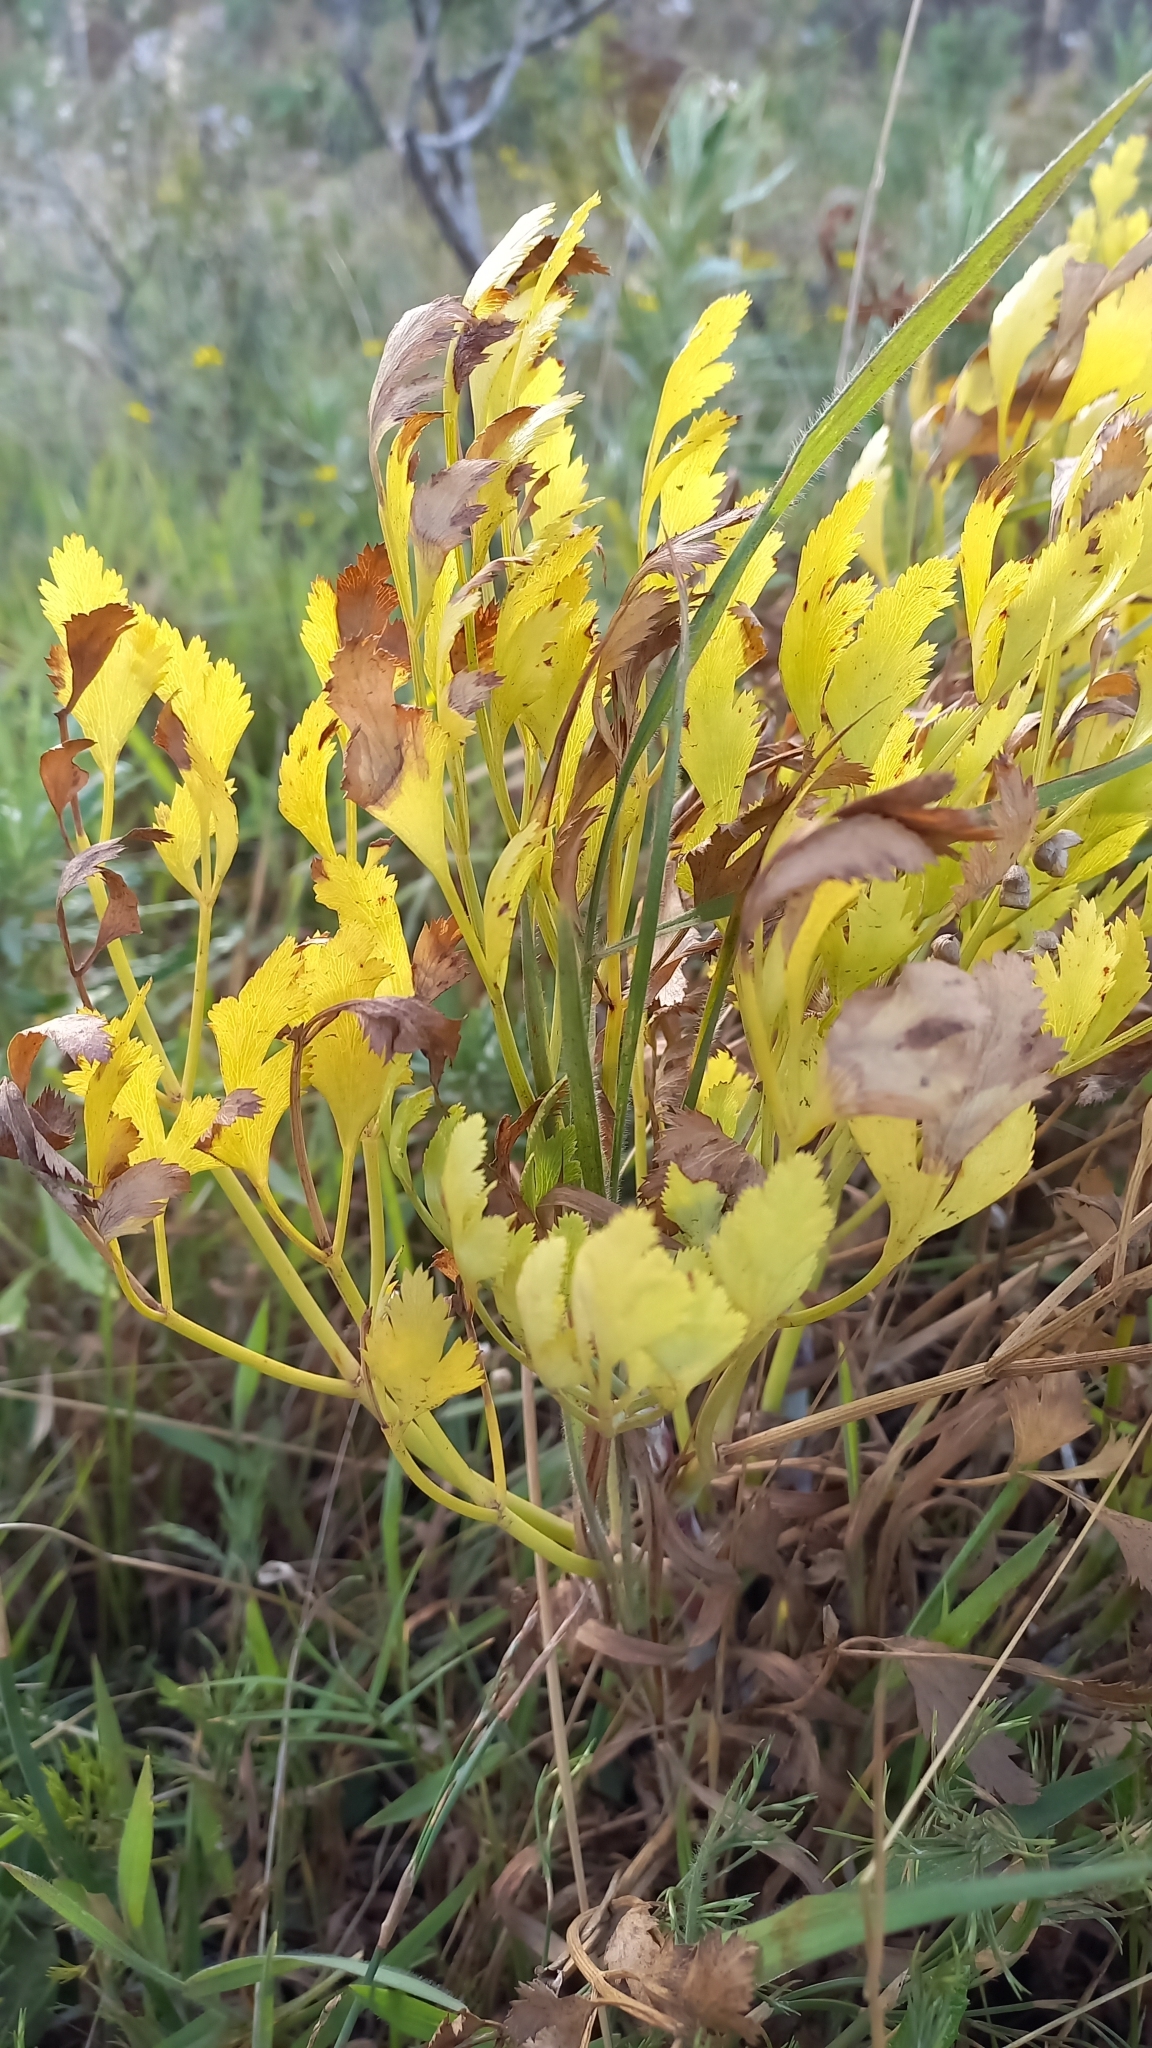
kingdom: Plantae
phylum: Tracheophyta
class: Magnoliopsida
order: Apiales
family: Apiaceae
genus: Notobubon
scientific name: Notobubon galbanum
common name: Blisterbush
